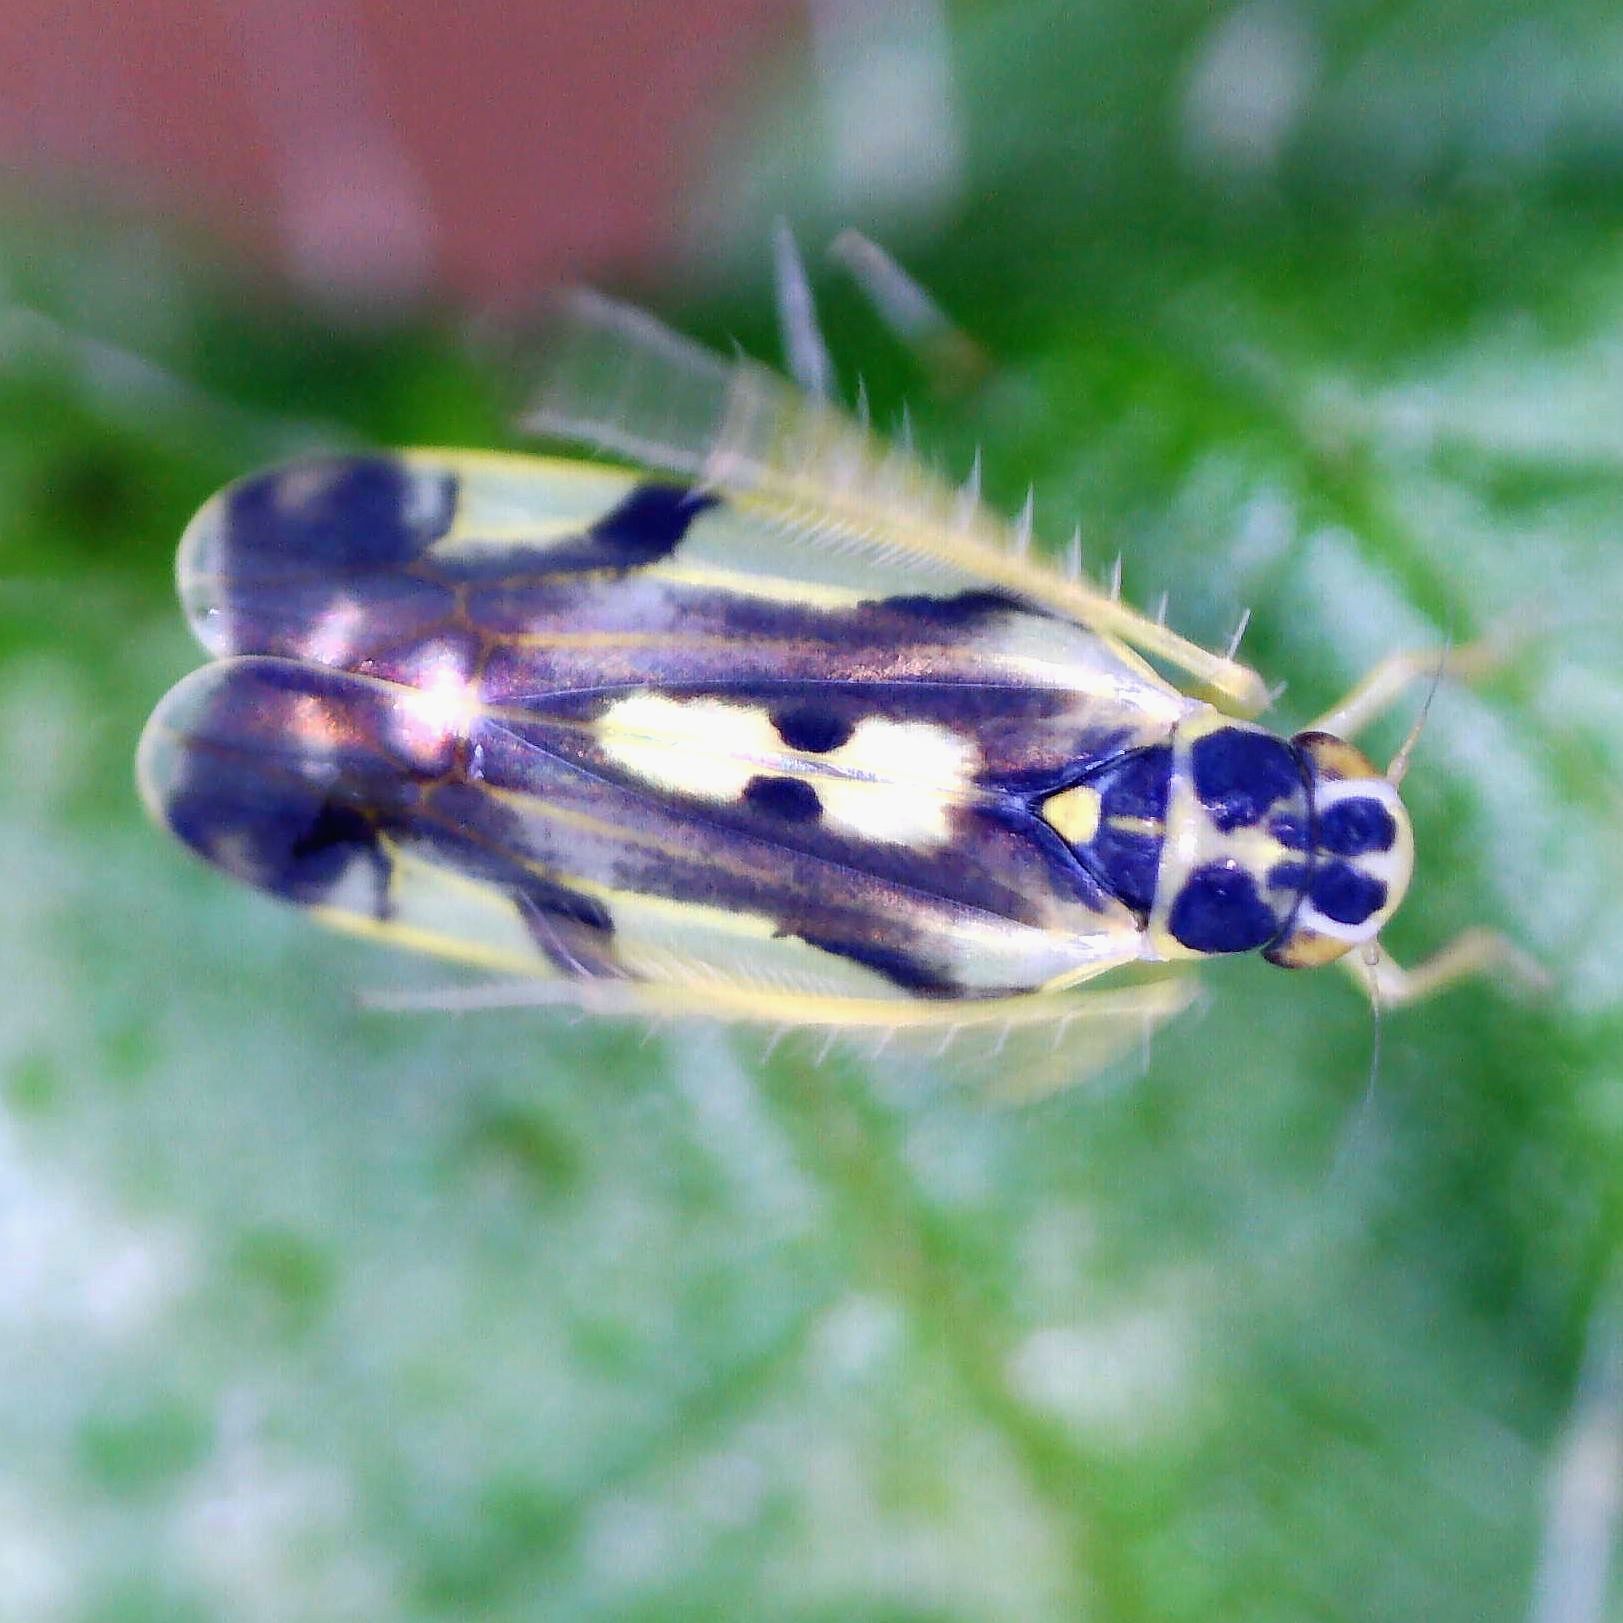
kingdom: Animalia
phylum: Arthropoda
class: Insecta
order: Hemiptera
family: Cicadellidae
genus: Eupteryx
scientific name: Eupteryx aurata
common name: Leafhopper
